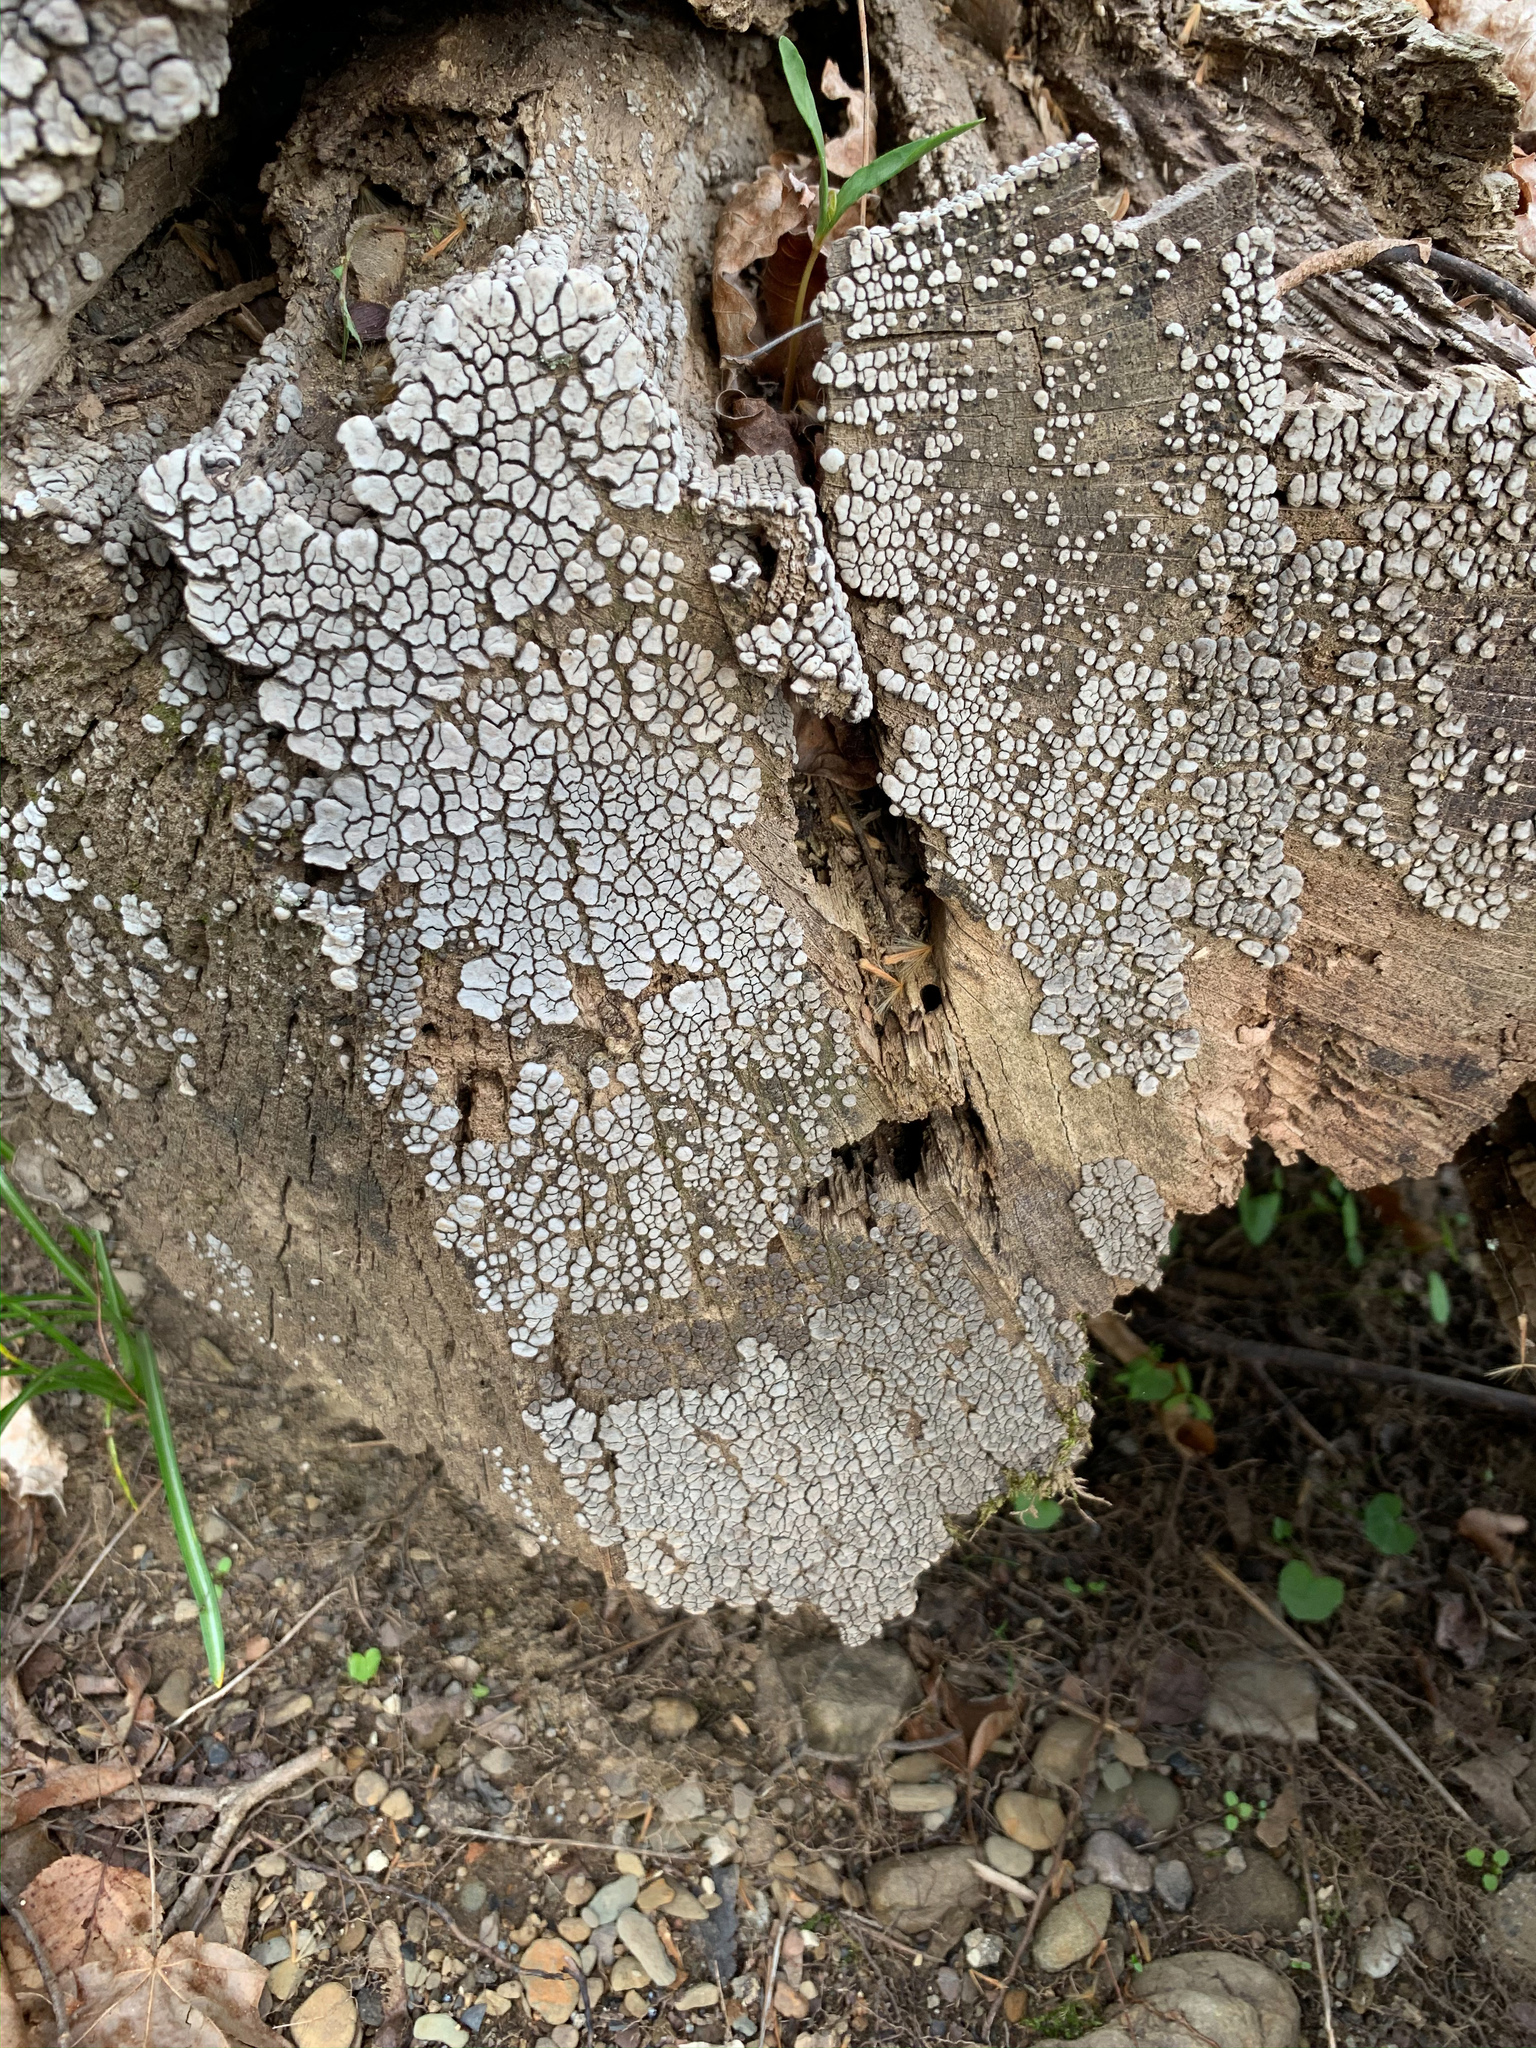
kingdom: Fungi
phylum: Basidiomycota
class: Agaricomycetes
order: Russulales
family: Stereaceae
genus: Xylobolus
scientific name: Xylobolus frustulatus
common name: Ceramic parchment
